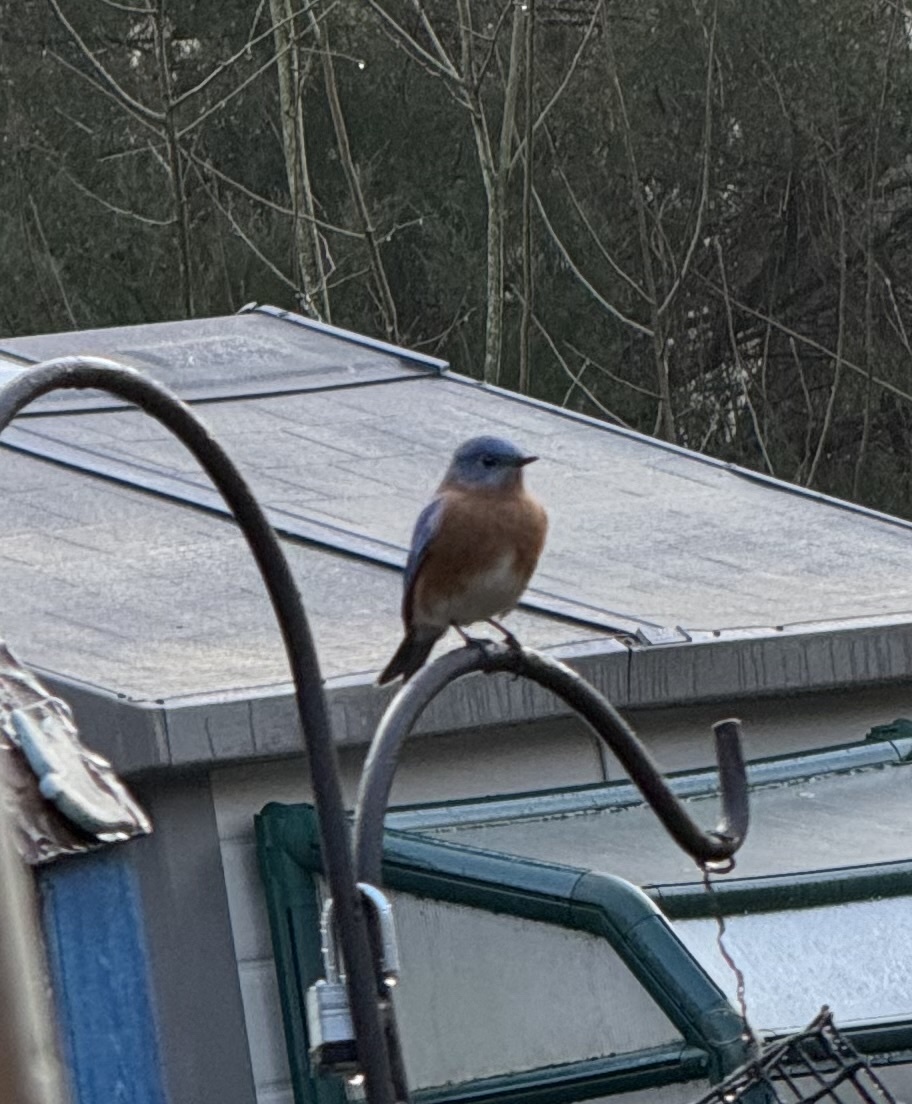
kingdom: Animalia
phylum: Chordata
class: Aves
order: Passeriformes
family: Turdidae
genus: Sialia
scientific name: Sialia sialis
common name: Eastern bluebird
